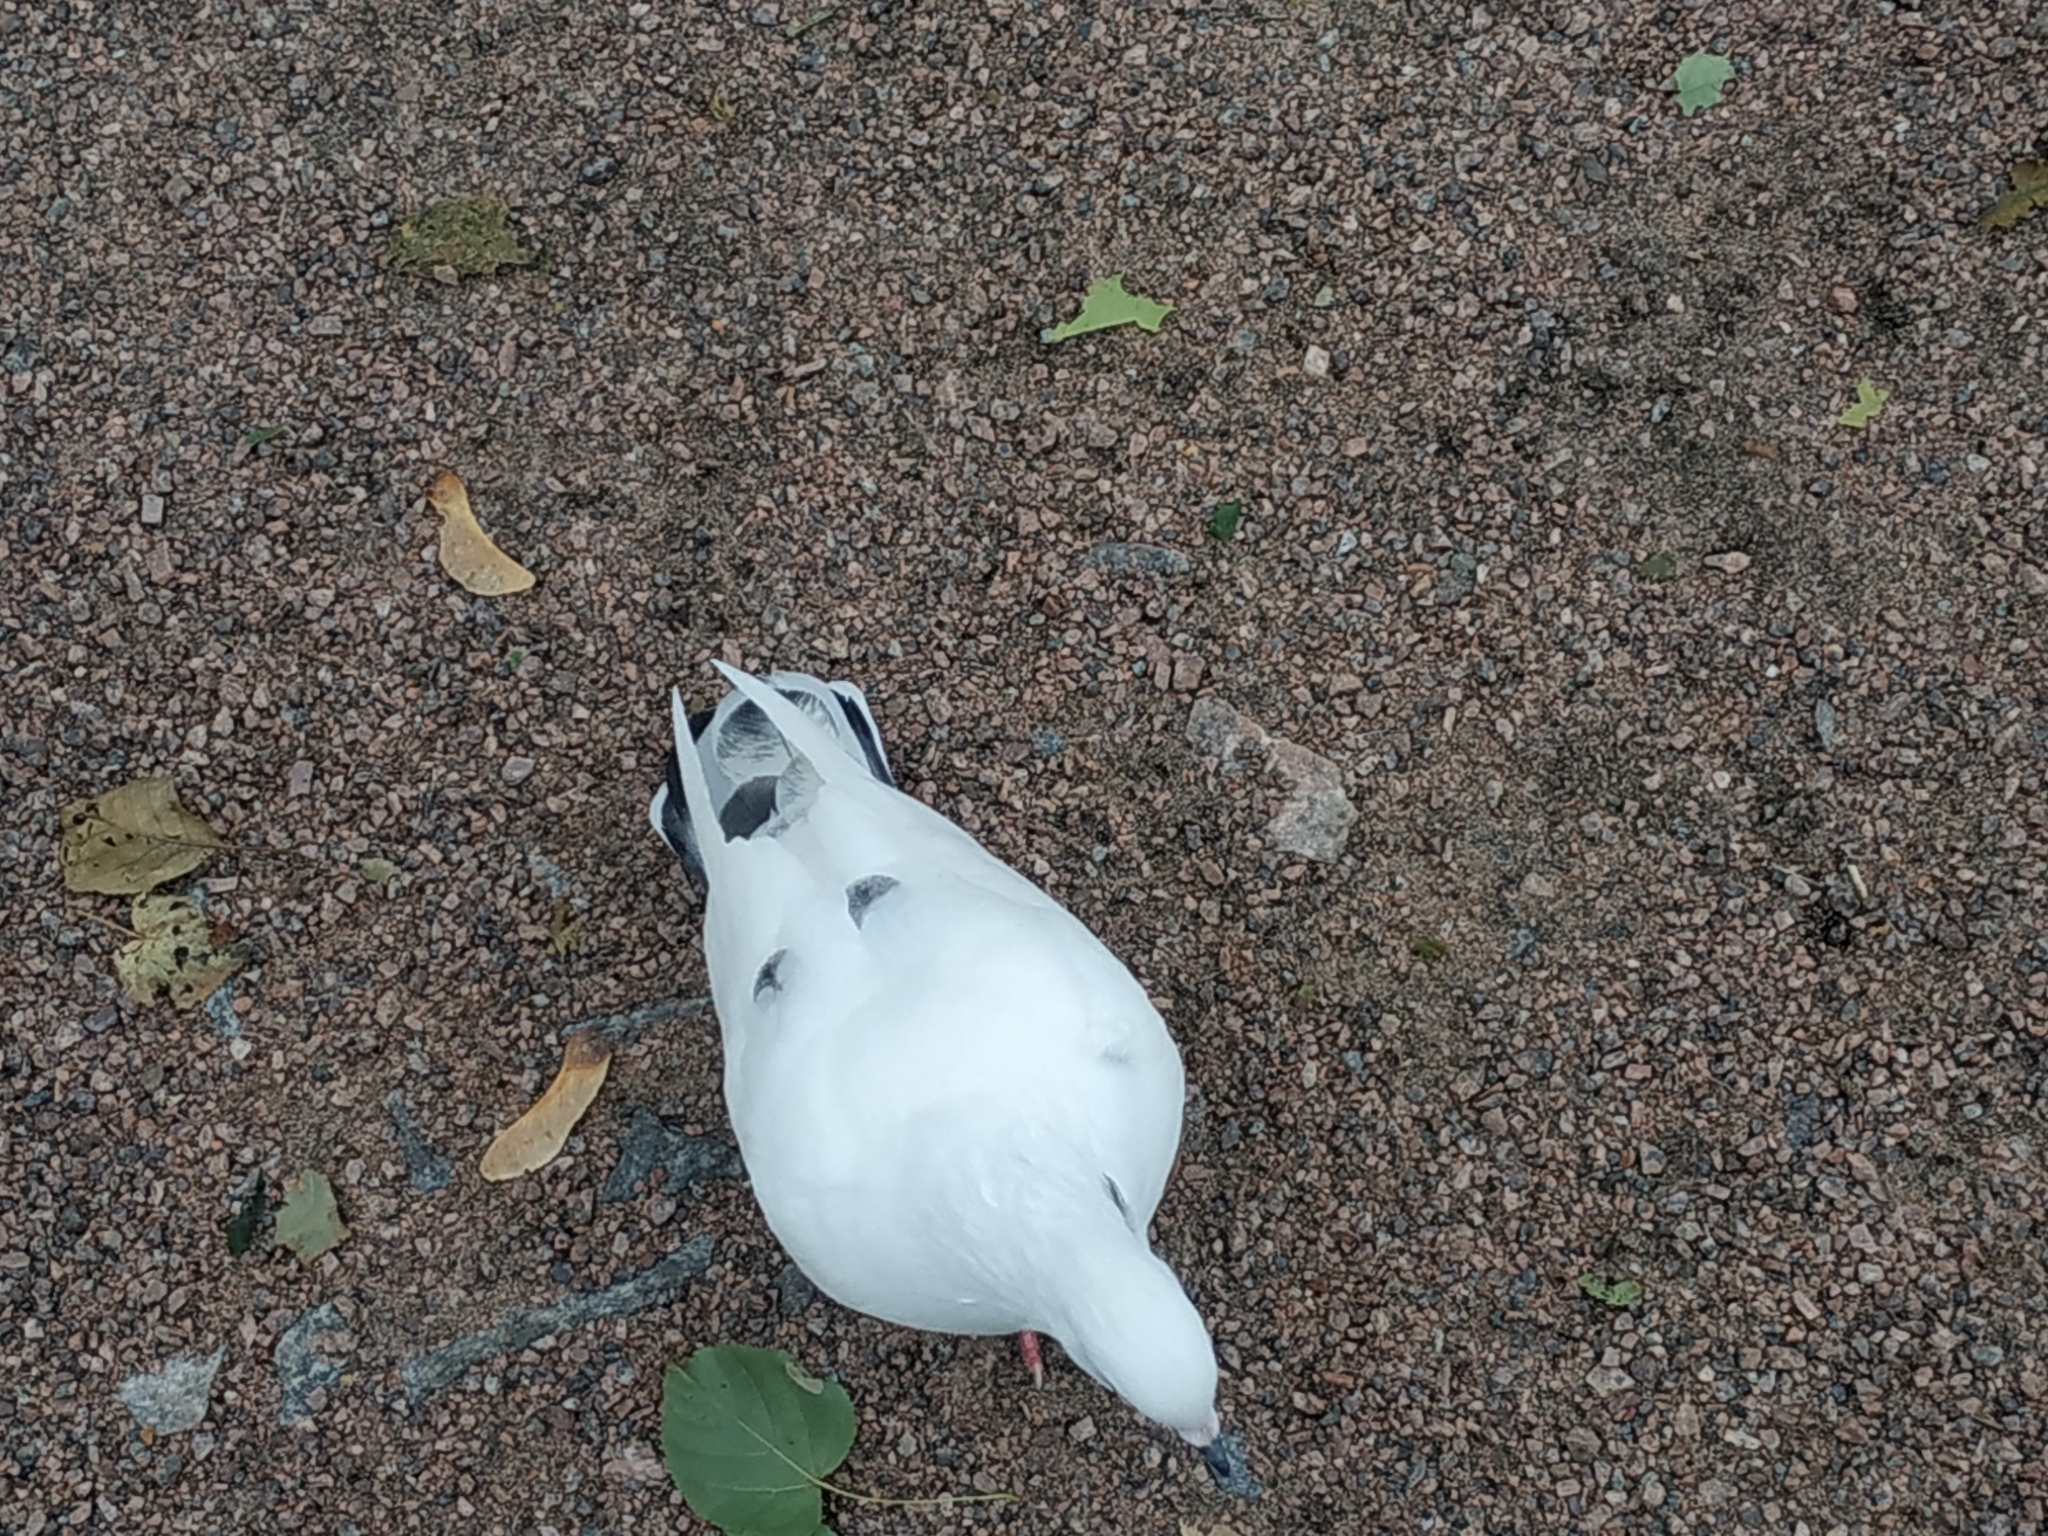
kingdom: Animalia
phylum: Chordata
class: Aves
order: Columbiformes
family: Columbidae
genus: Columba
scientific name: Columba livia
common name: Rock pigeon
